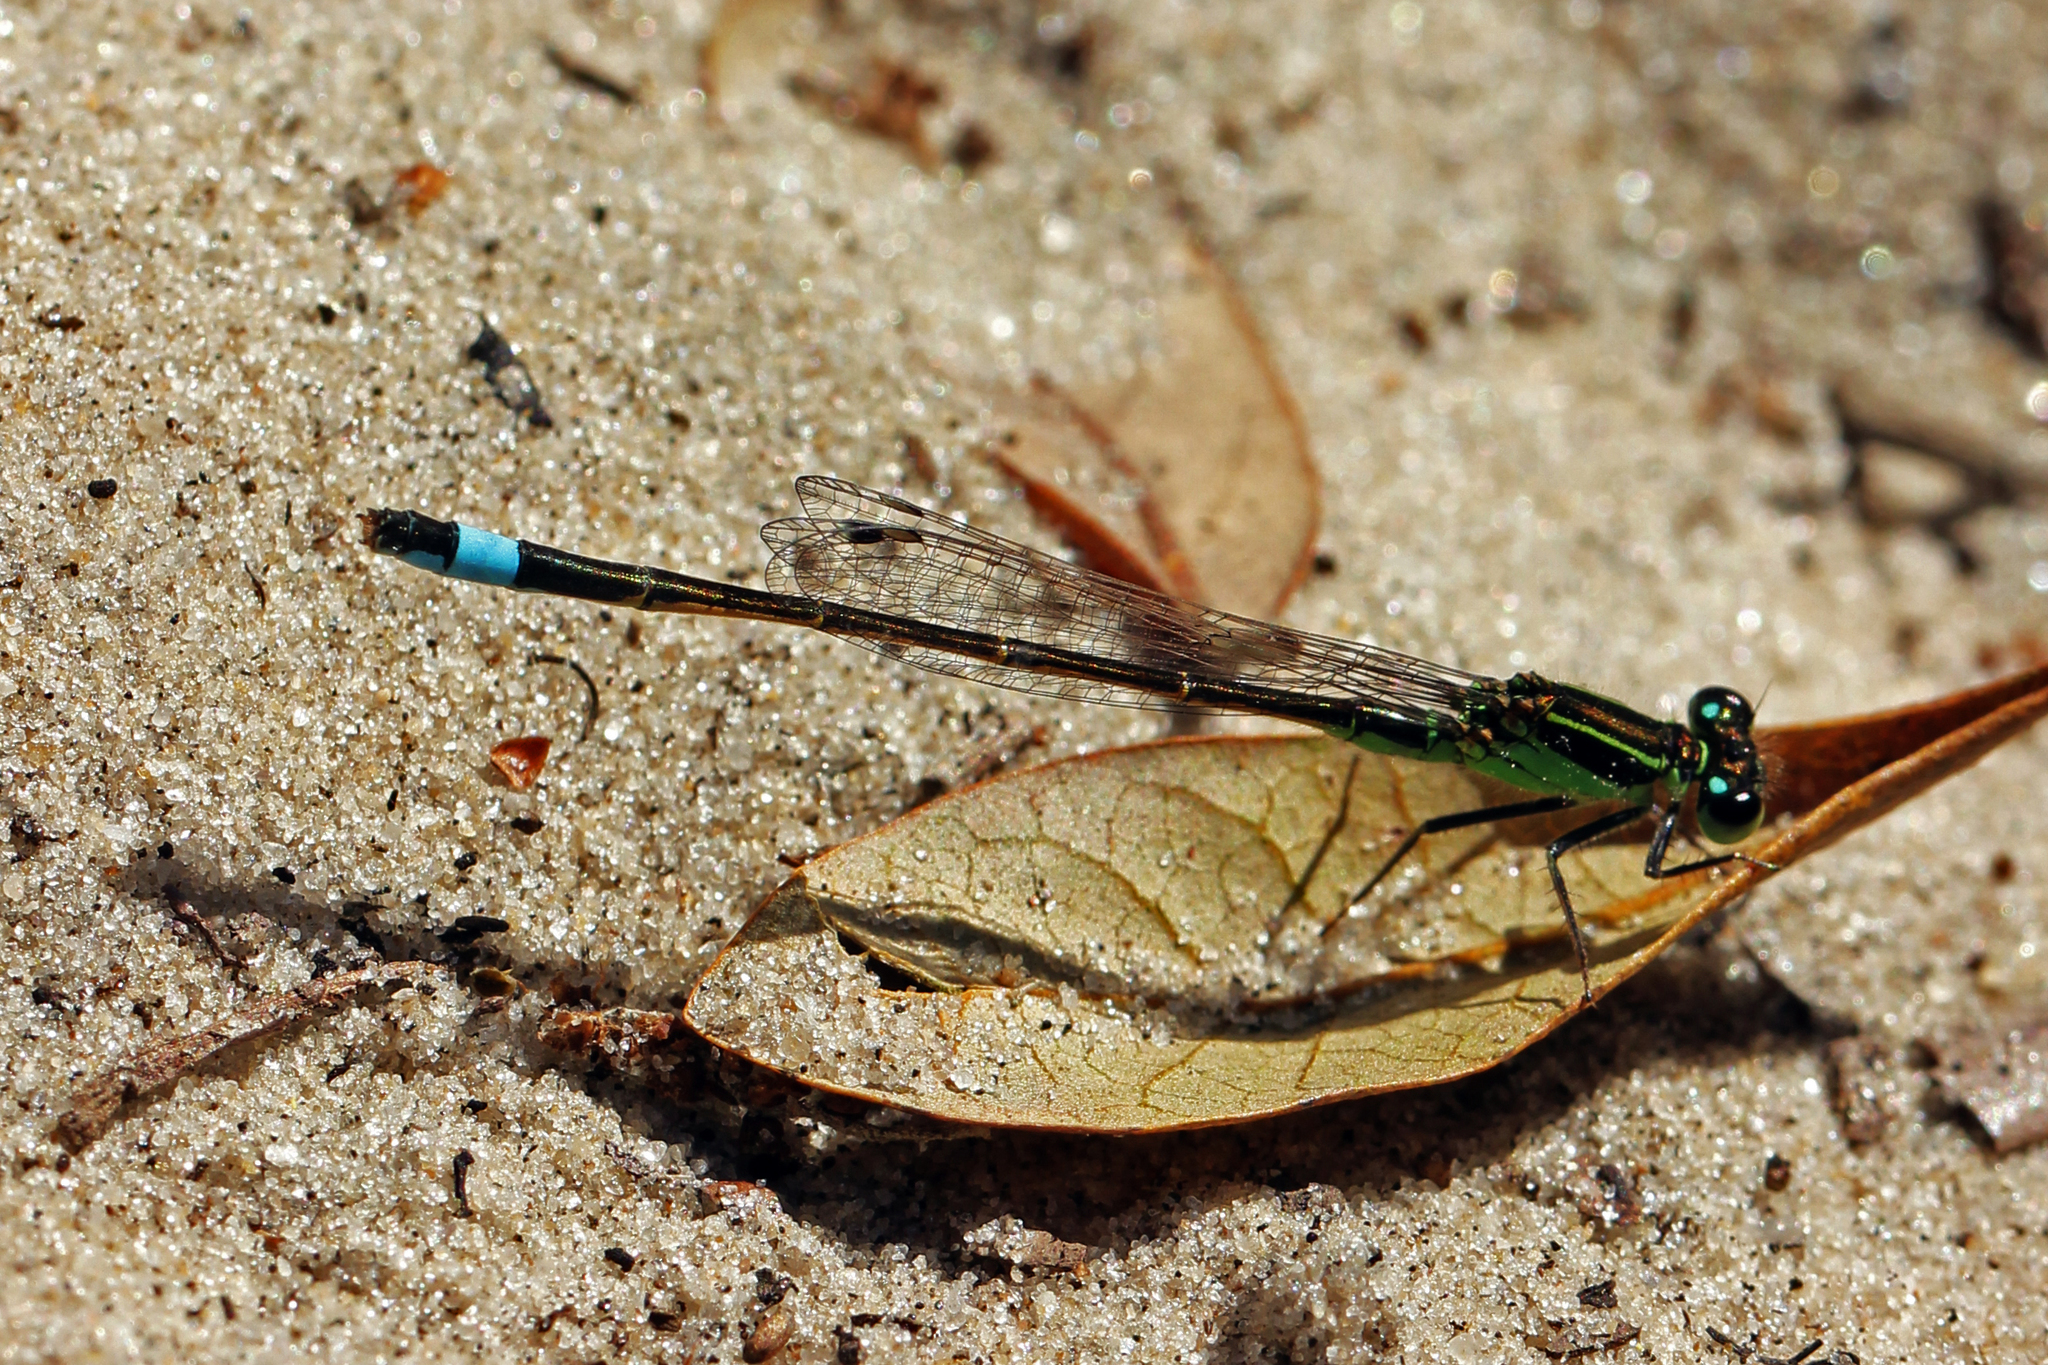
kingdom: Animalia
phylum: Arthropoda
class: Insecta
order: Odonata
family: Coenagrionidae
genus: Ischnura
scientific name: Ischnura ramburii
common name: Rambur's forktail
